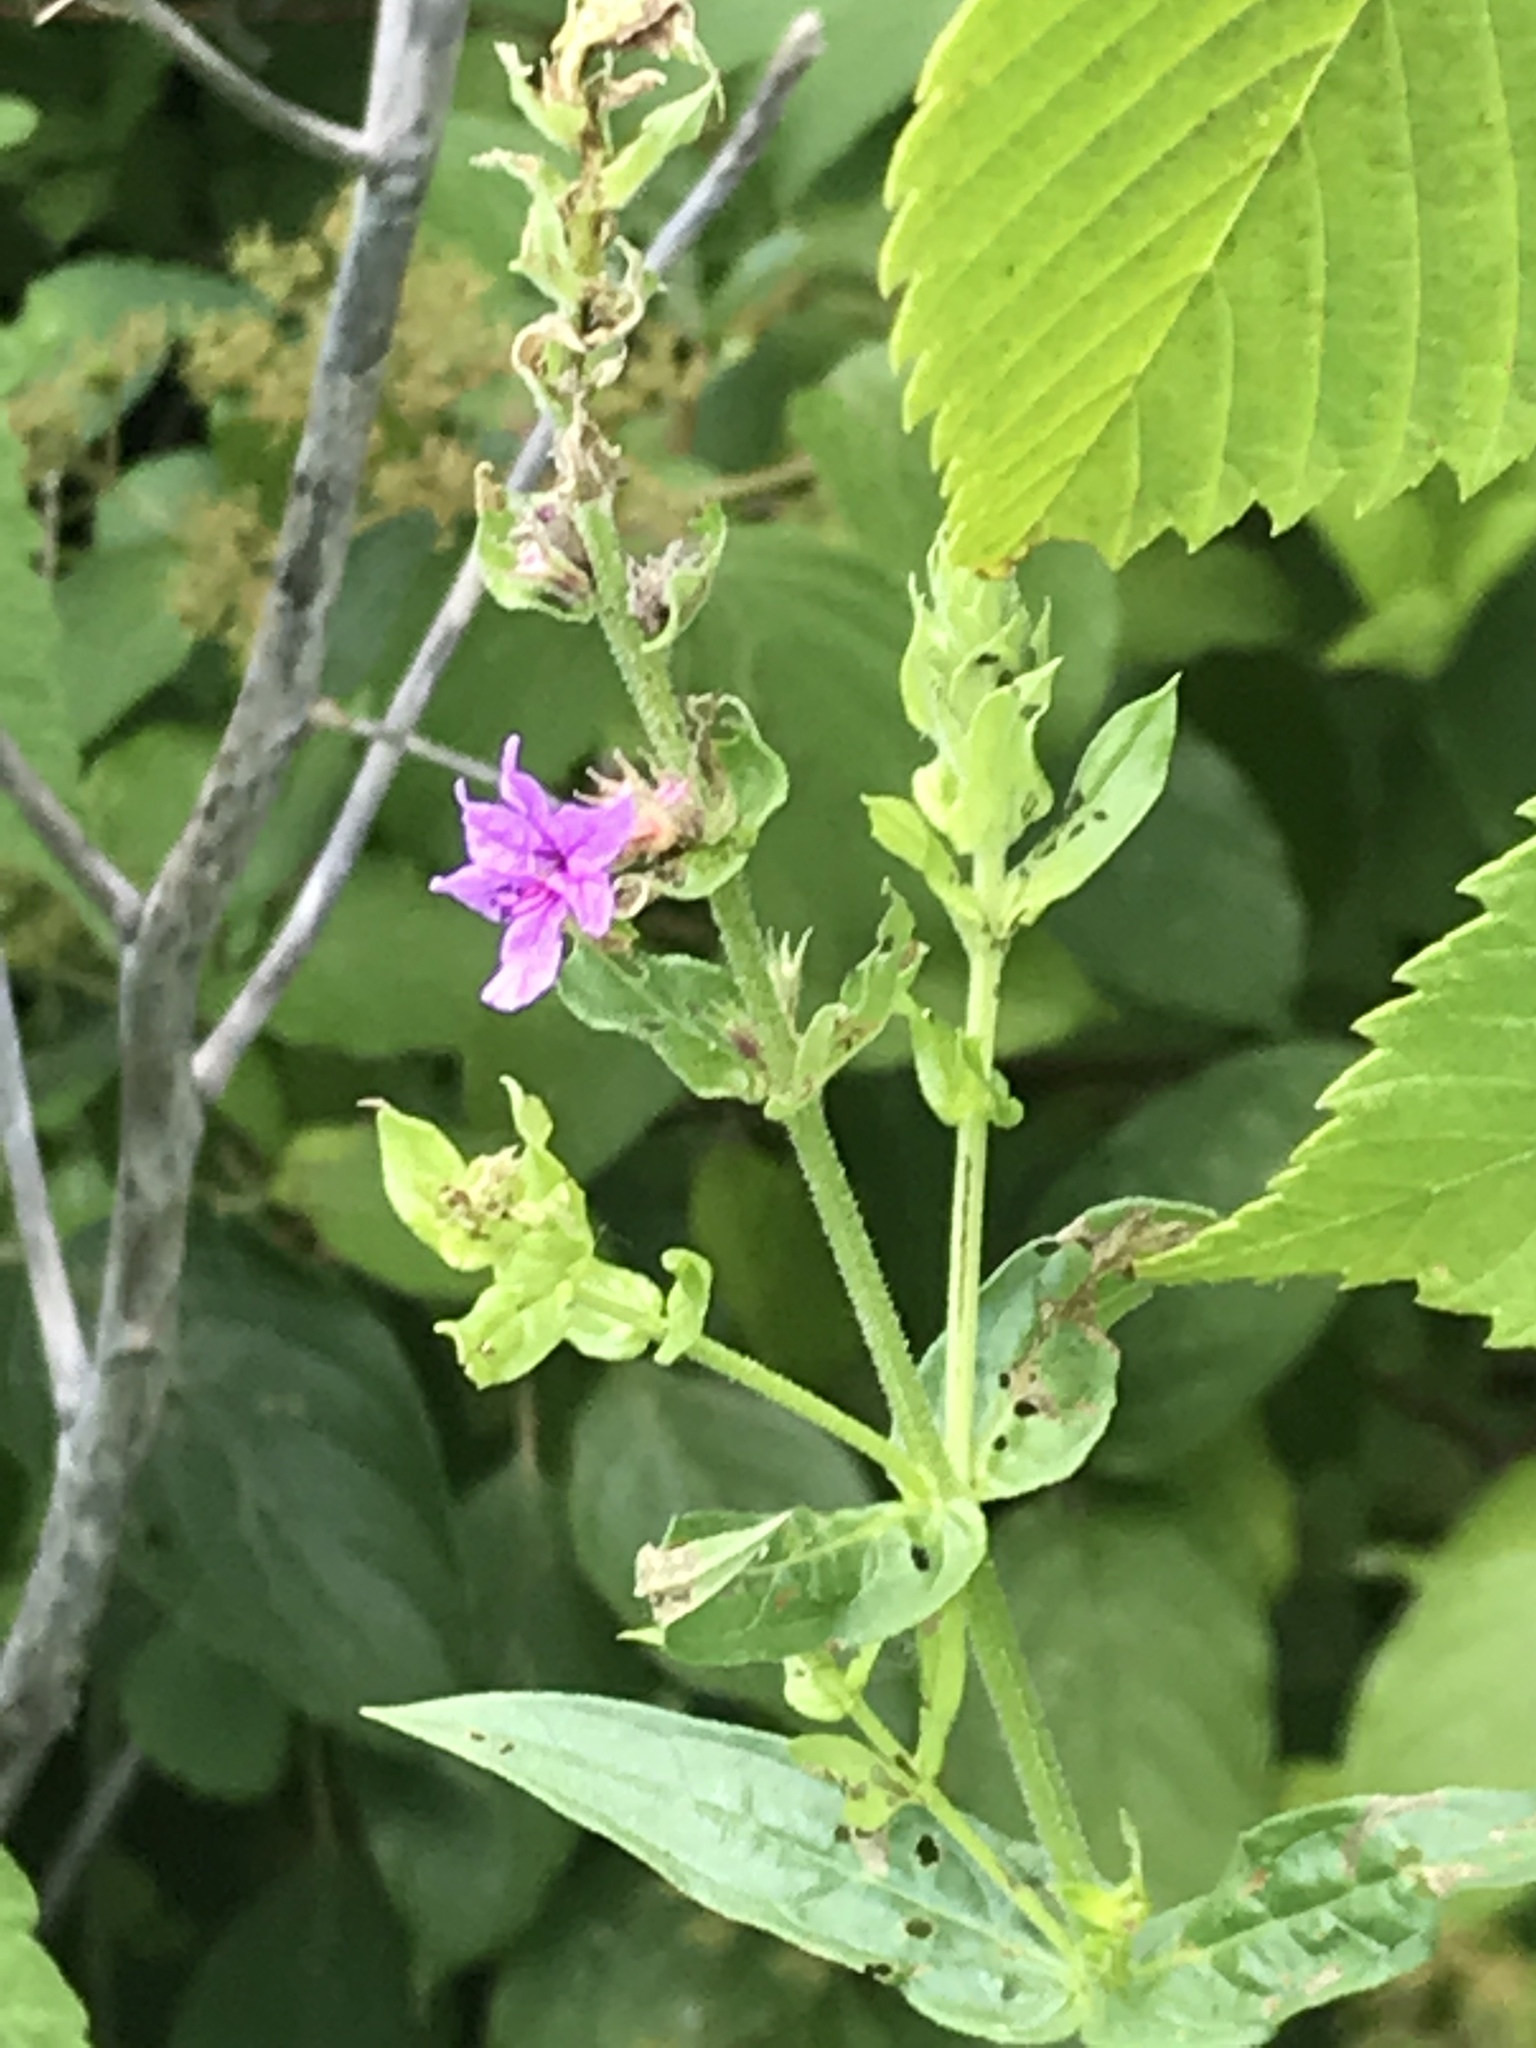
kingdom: Plantae
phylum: Tracheophyta
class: Magnoliopsida
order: Myrtales
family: Lythraceae
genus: Lythrum
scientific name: Lythrum salicaria
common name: Purple loosestrife
